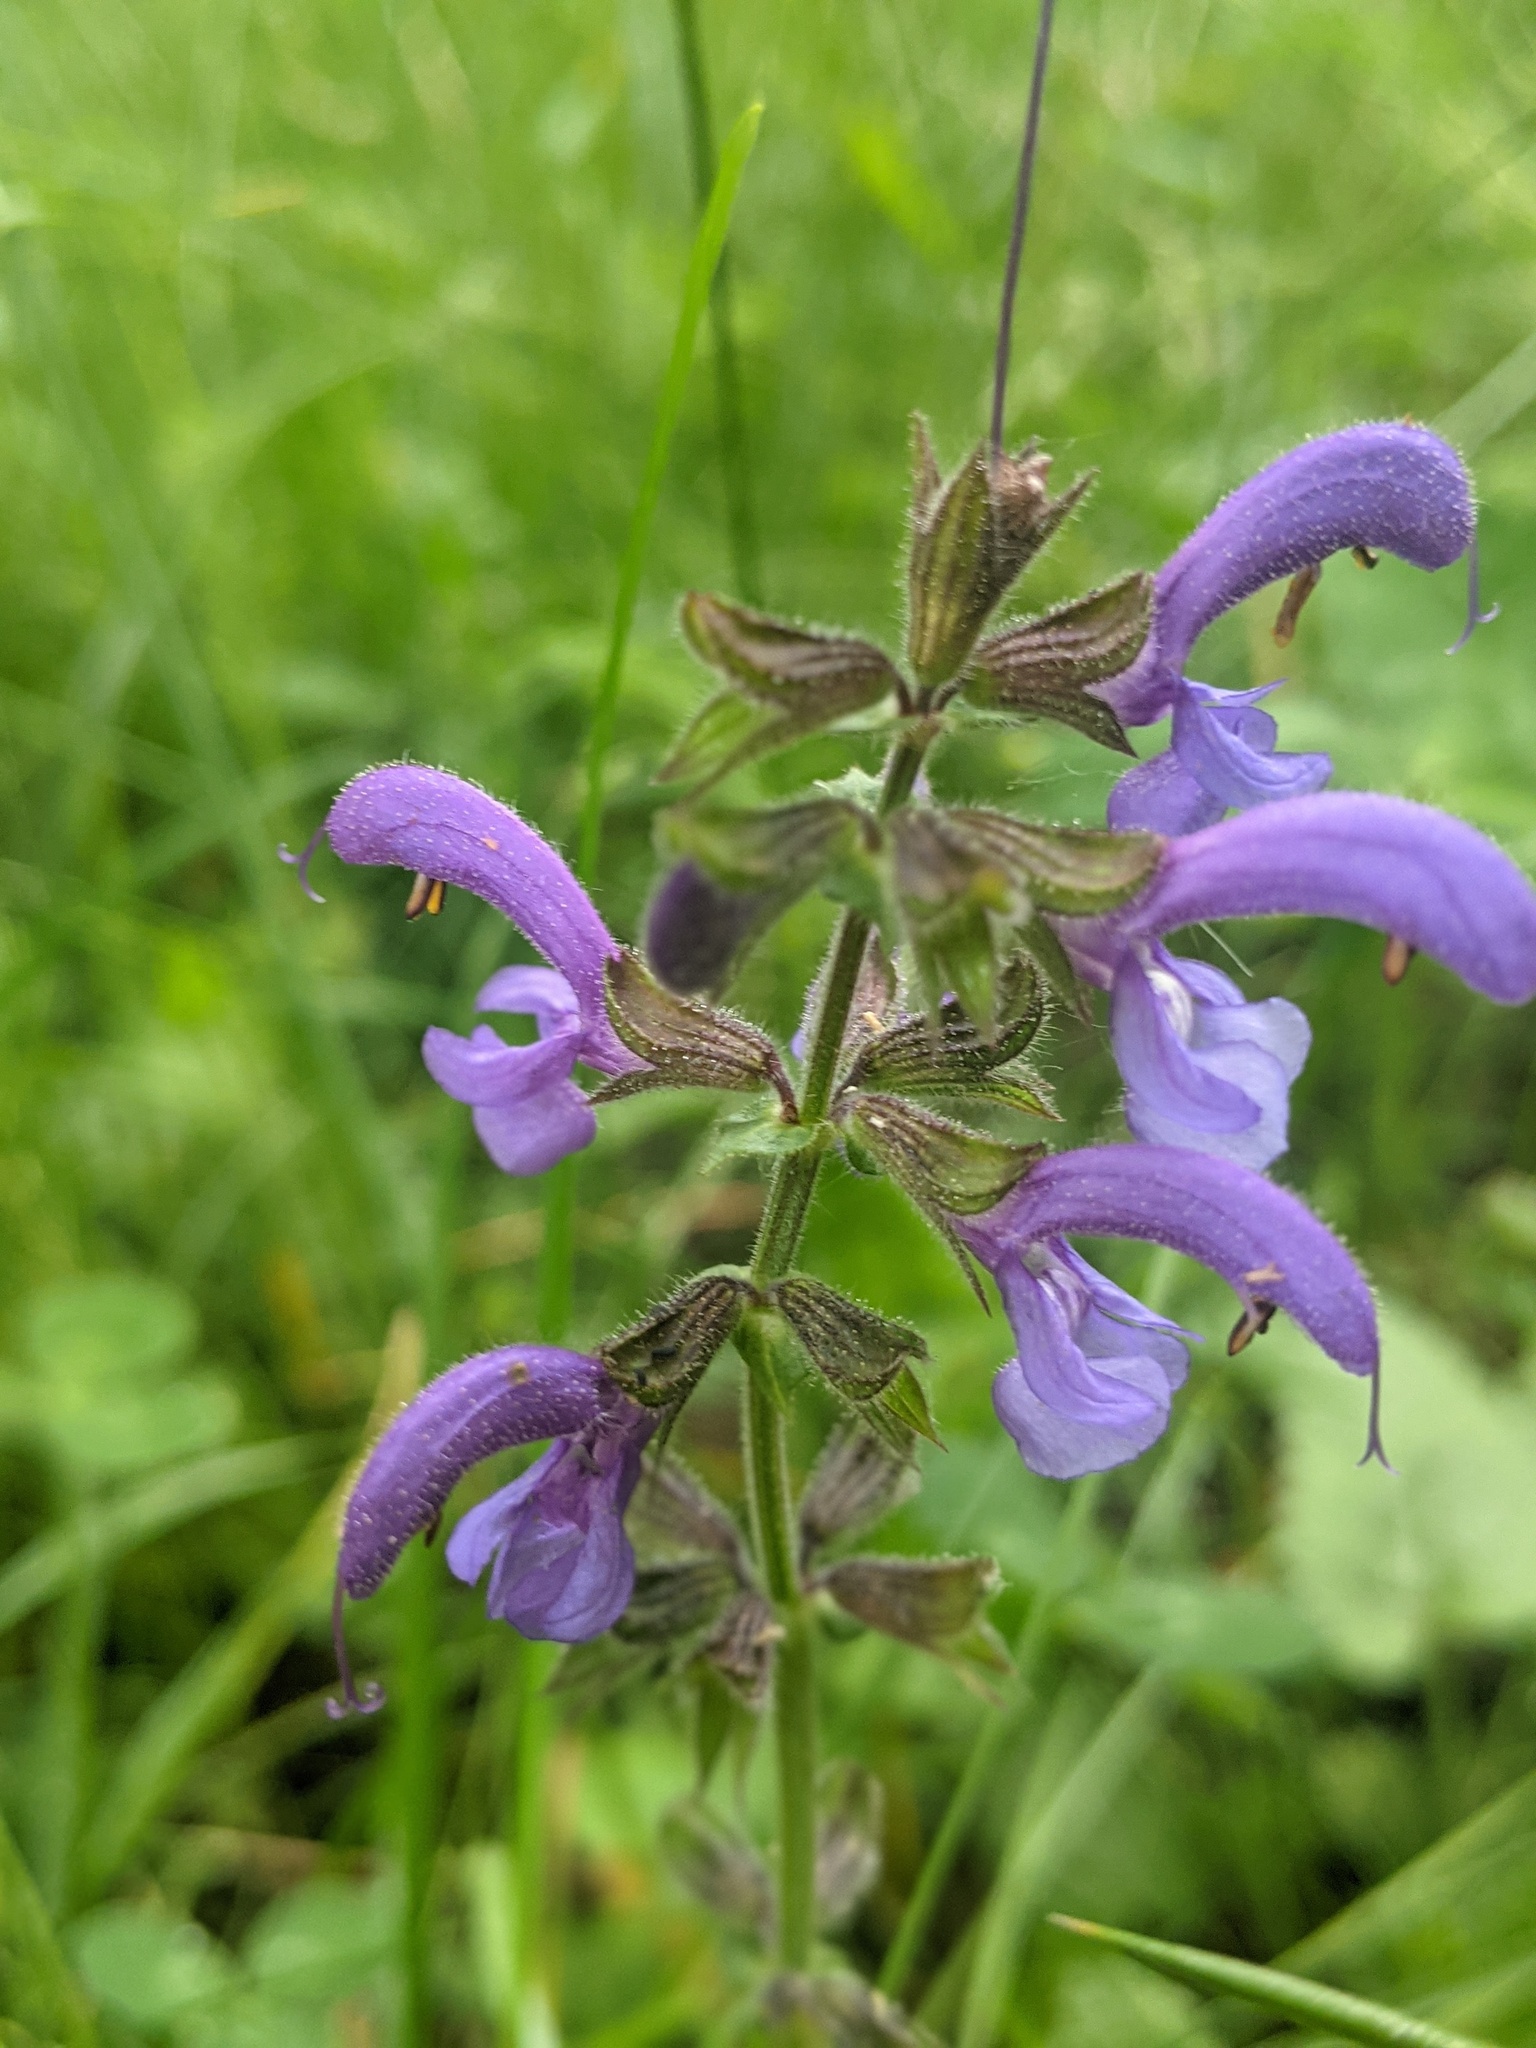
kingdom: Plantae
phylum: Tracheophyta
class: Magnoliopsida
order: Lamiales
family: Lamiaceae
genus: Salvia
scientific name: Salvia pratensis
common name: Meadow sage
